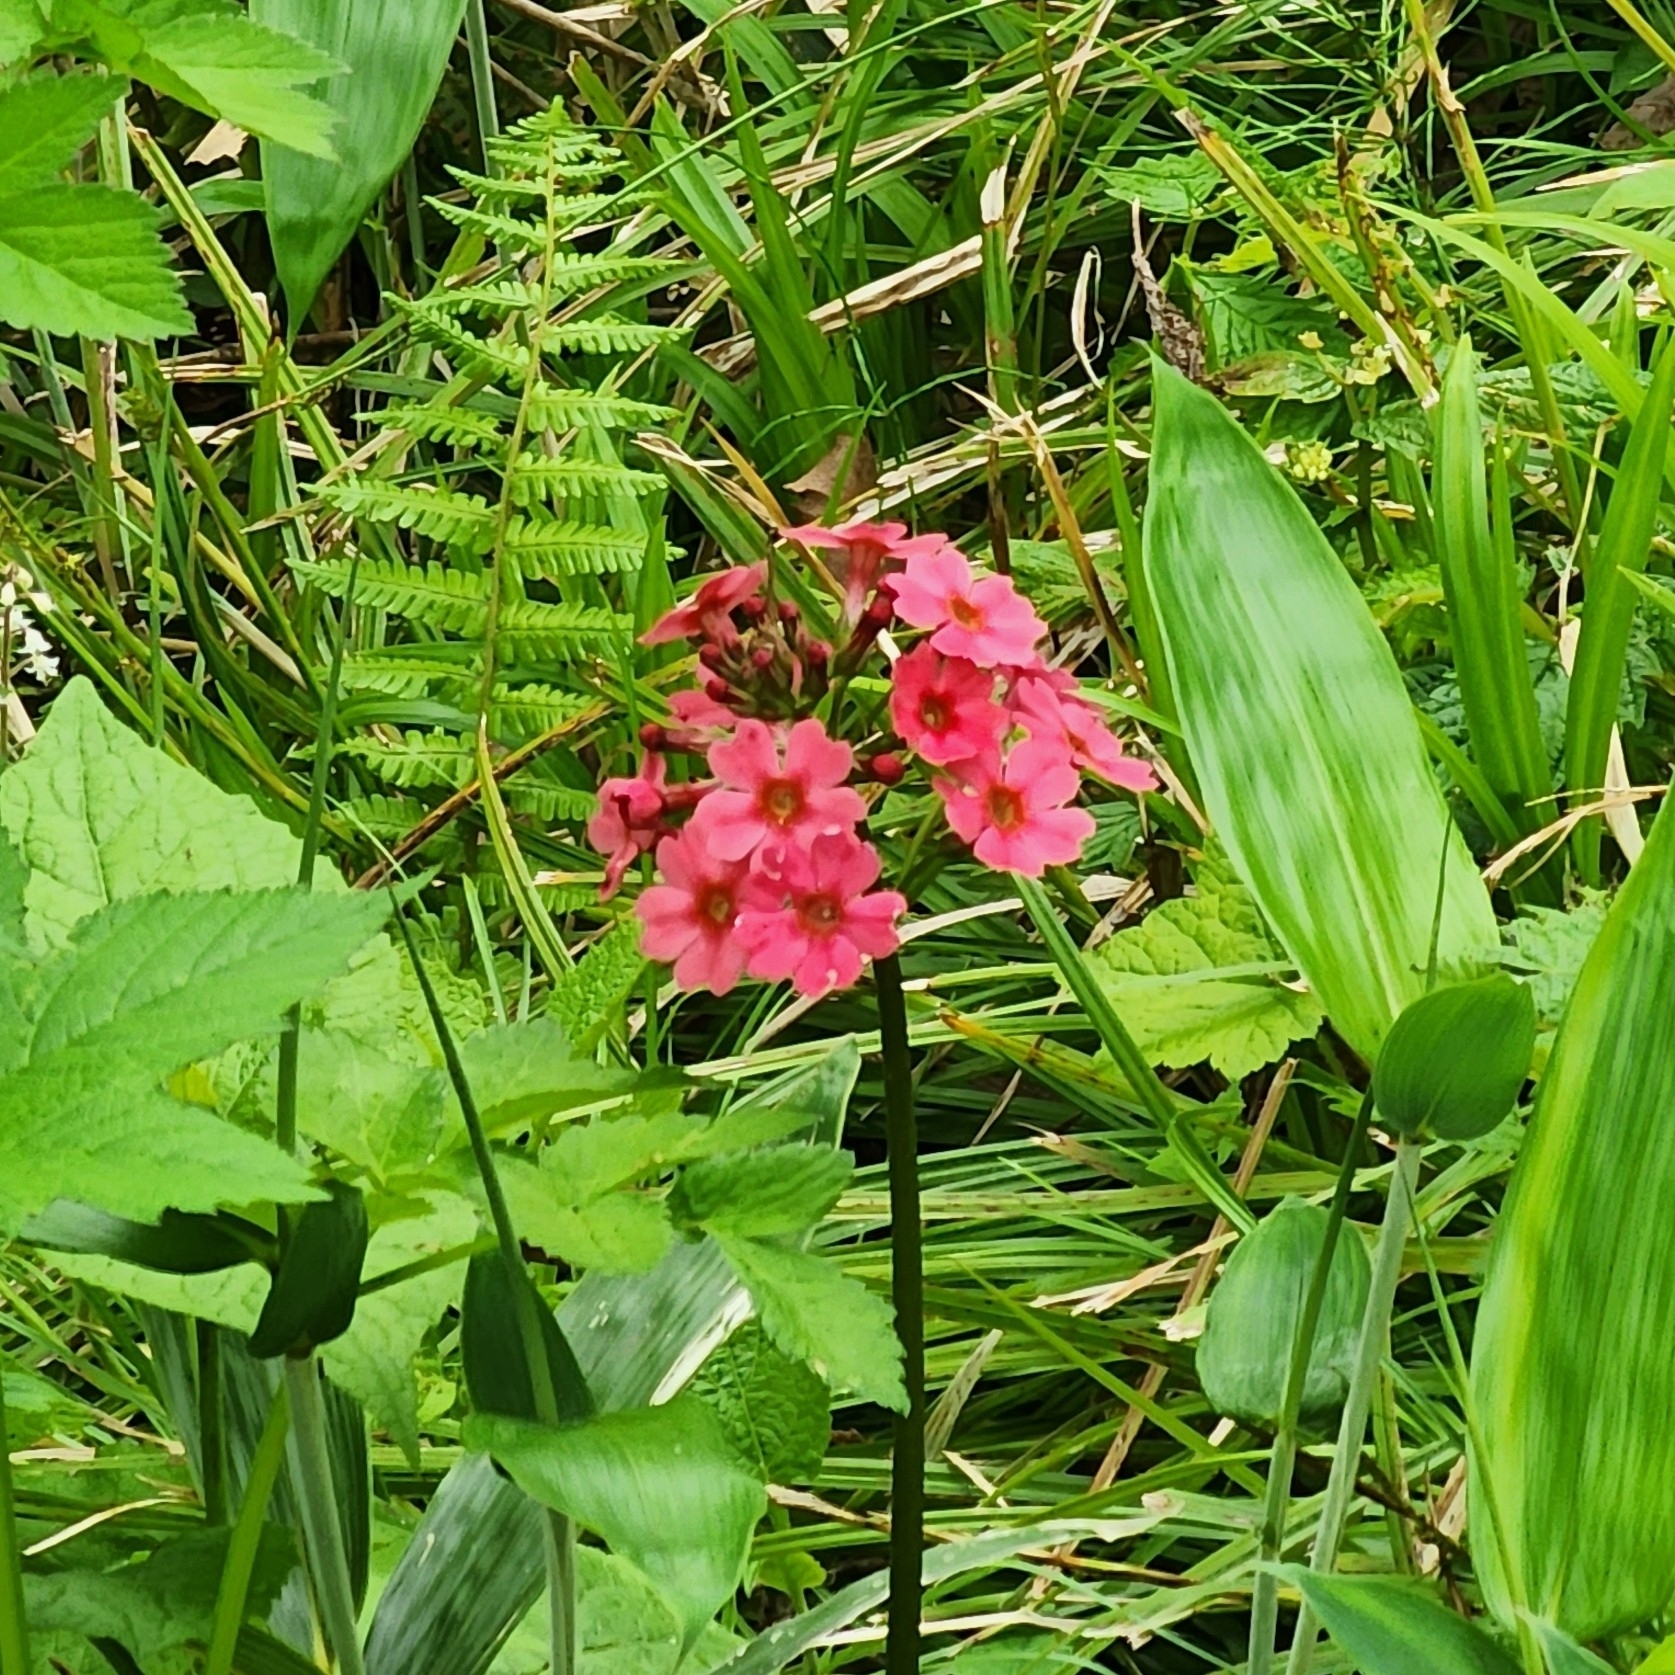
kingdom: Plantae
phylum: Tracheophyta
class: Magnoliopsida
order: Ericales
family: Primulaceae
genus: Primula
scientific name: Primula japonica
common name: Japanese cowslip
